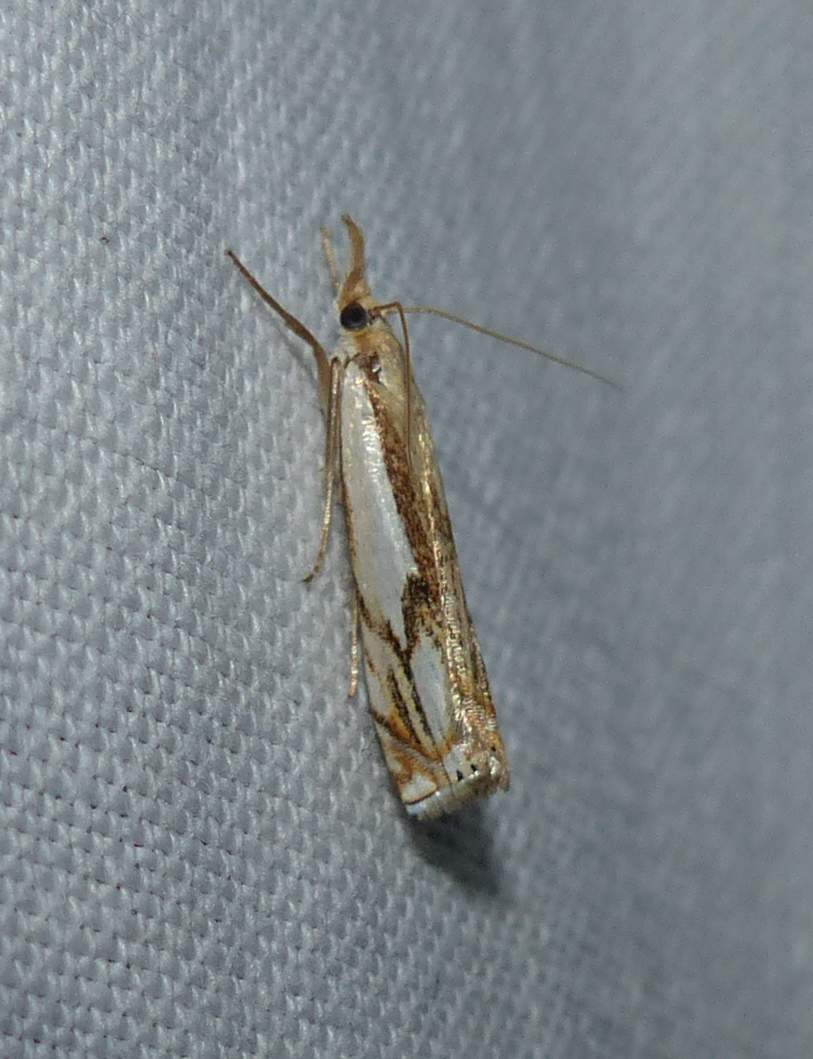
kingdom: Animalia
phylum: Arthropoda
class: Insecta
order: Lepidoptera
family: Crambidae
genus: Crambus
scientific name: Crambus agitatellus
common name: Double-banded grass-veneer
